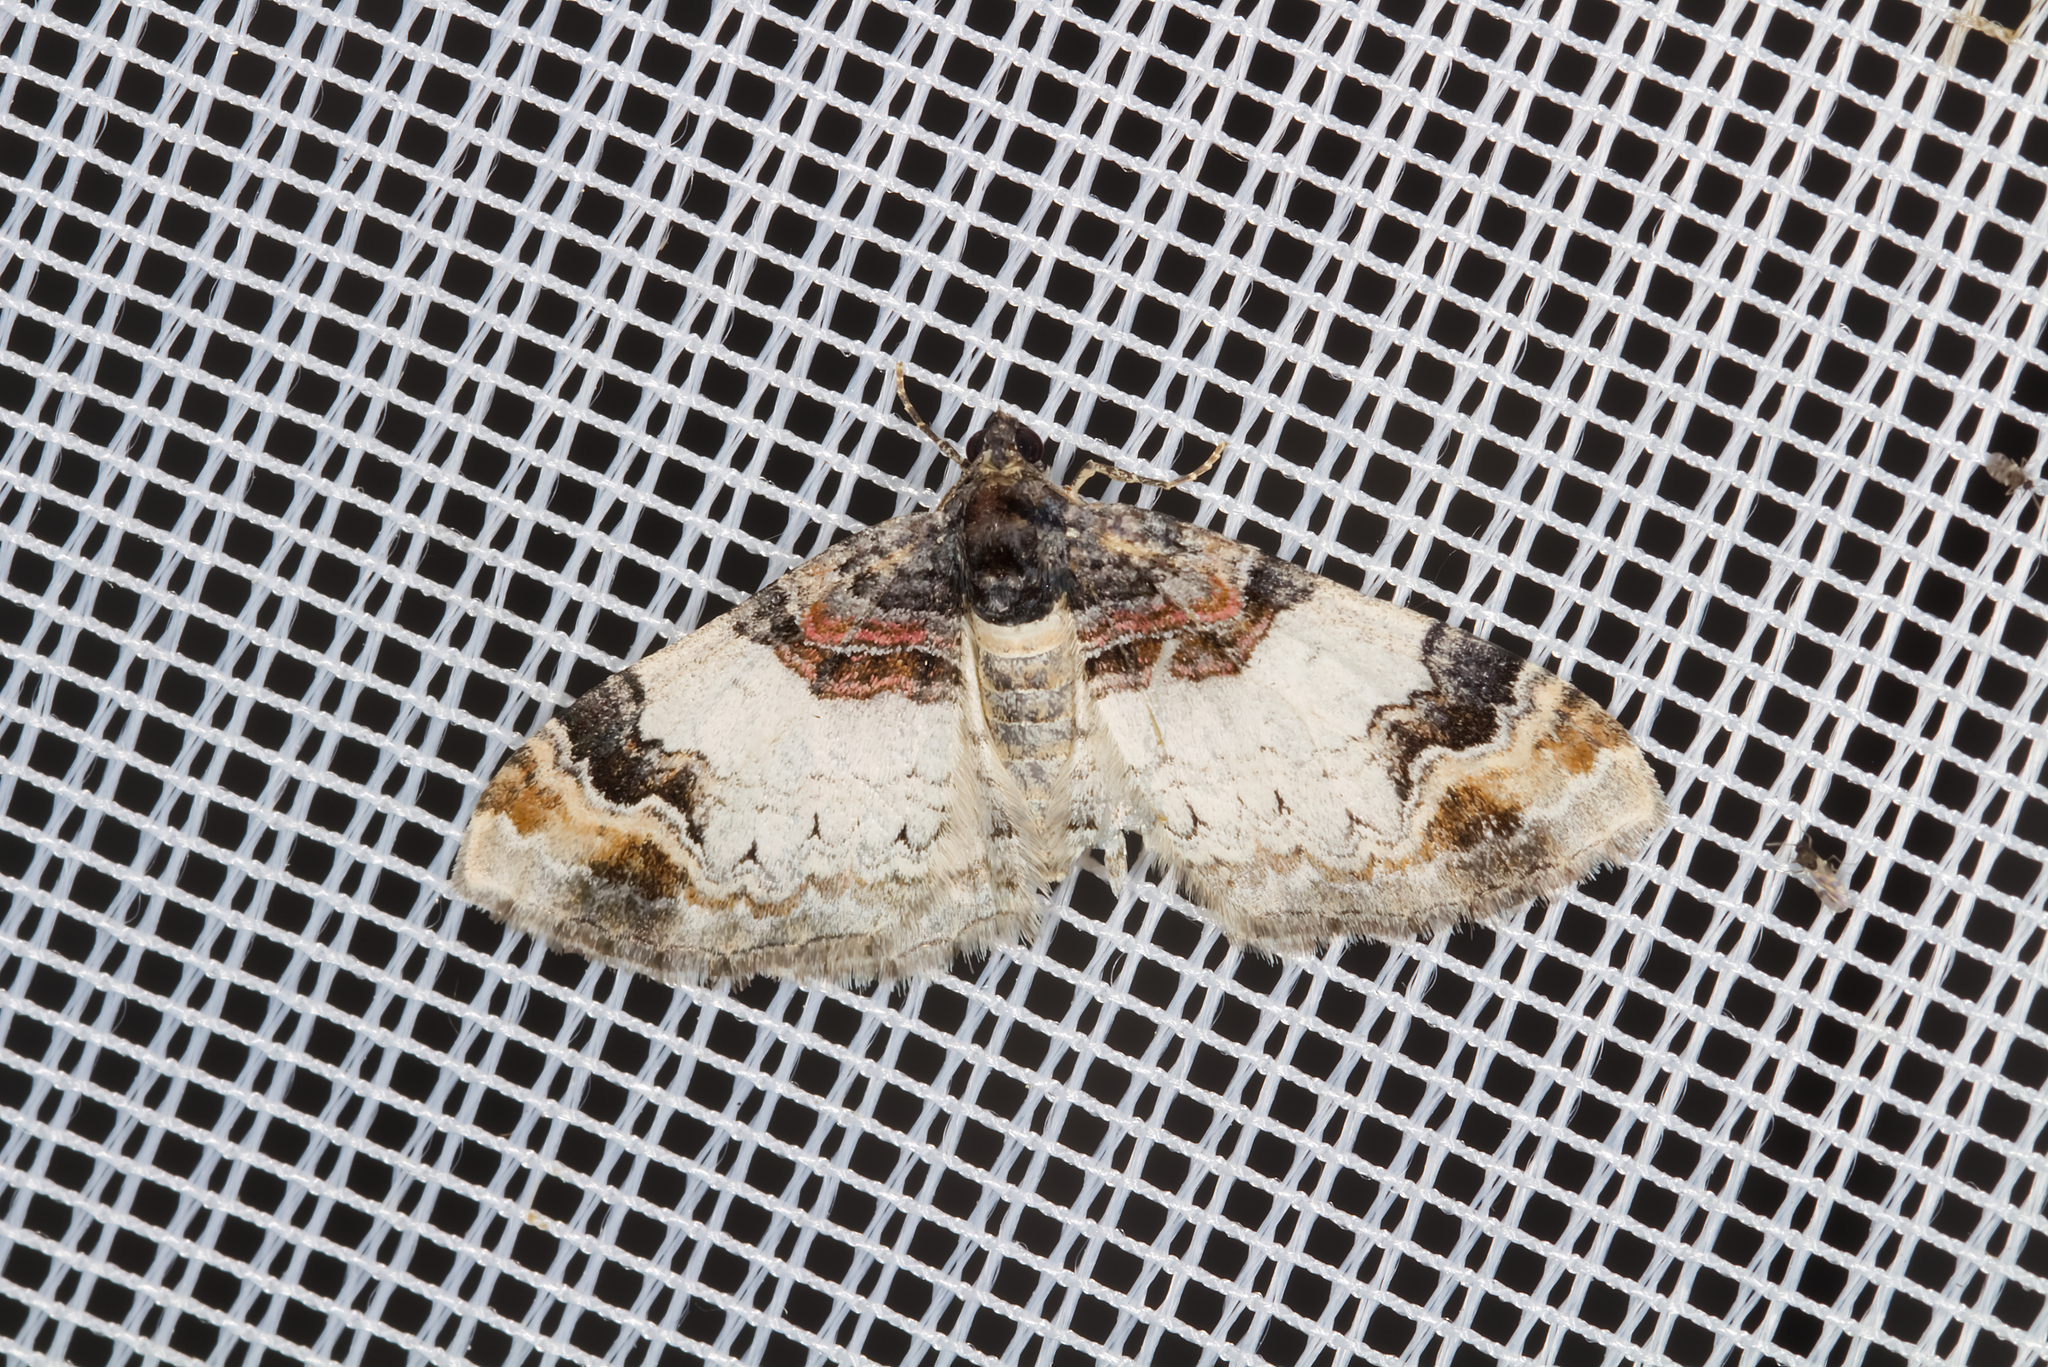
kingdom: Animalia
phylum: Arthropoda
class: Insecta
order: Lepidoptera
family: Geometridae
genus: Catarhoe
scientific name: Catarhoe cuculata
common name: Royal mantle
